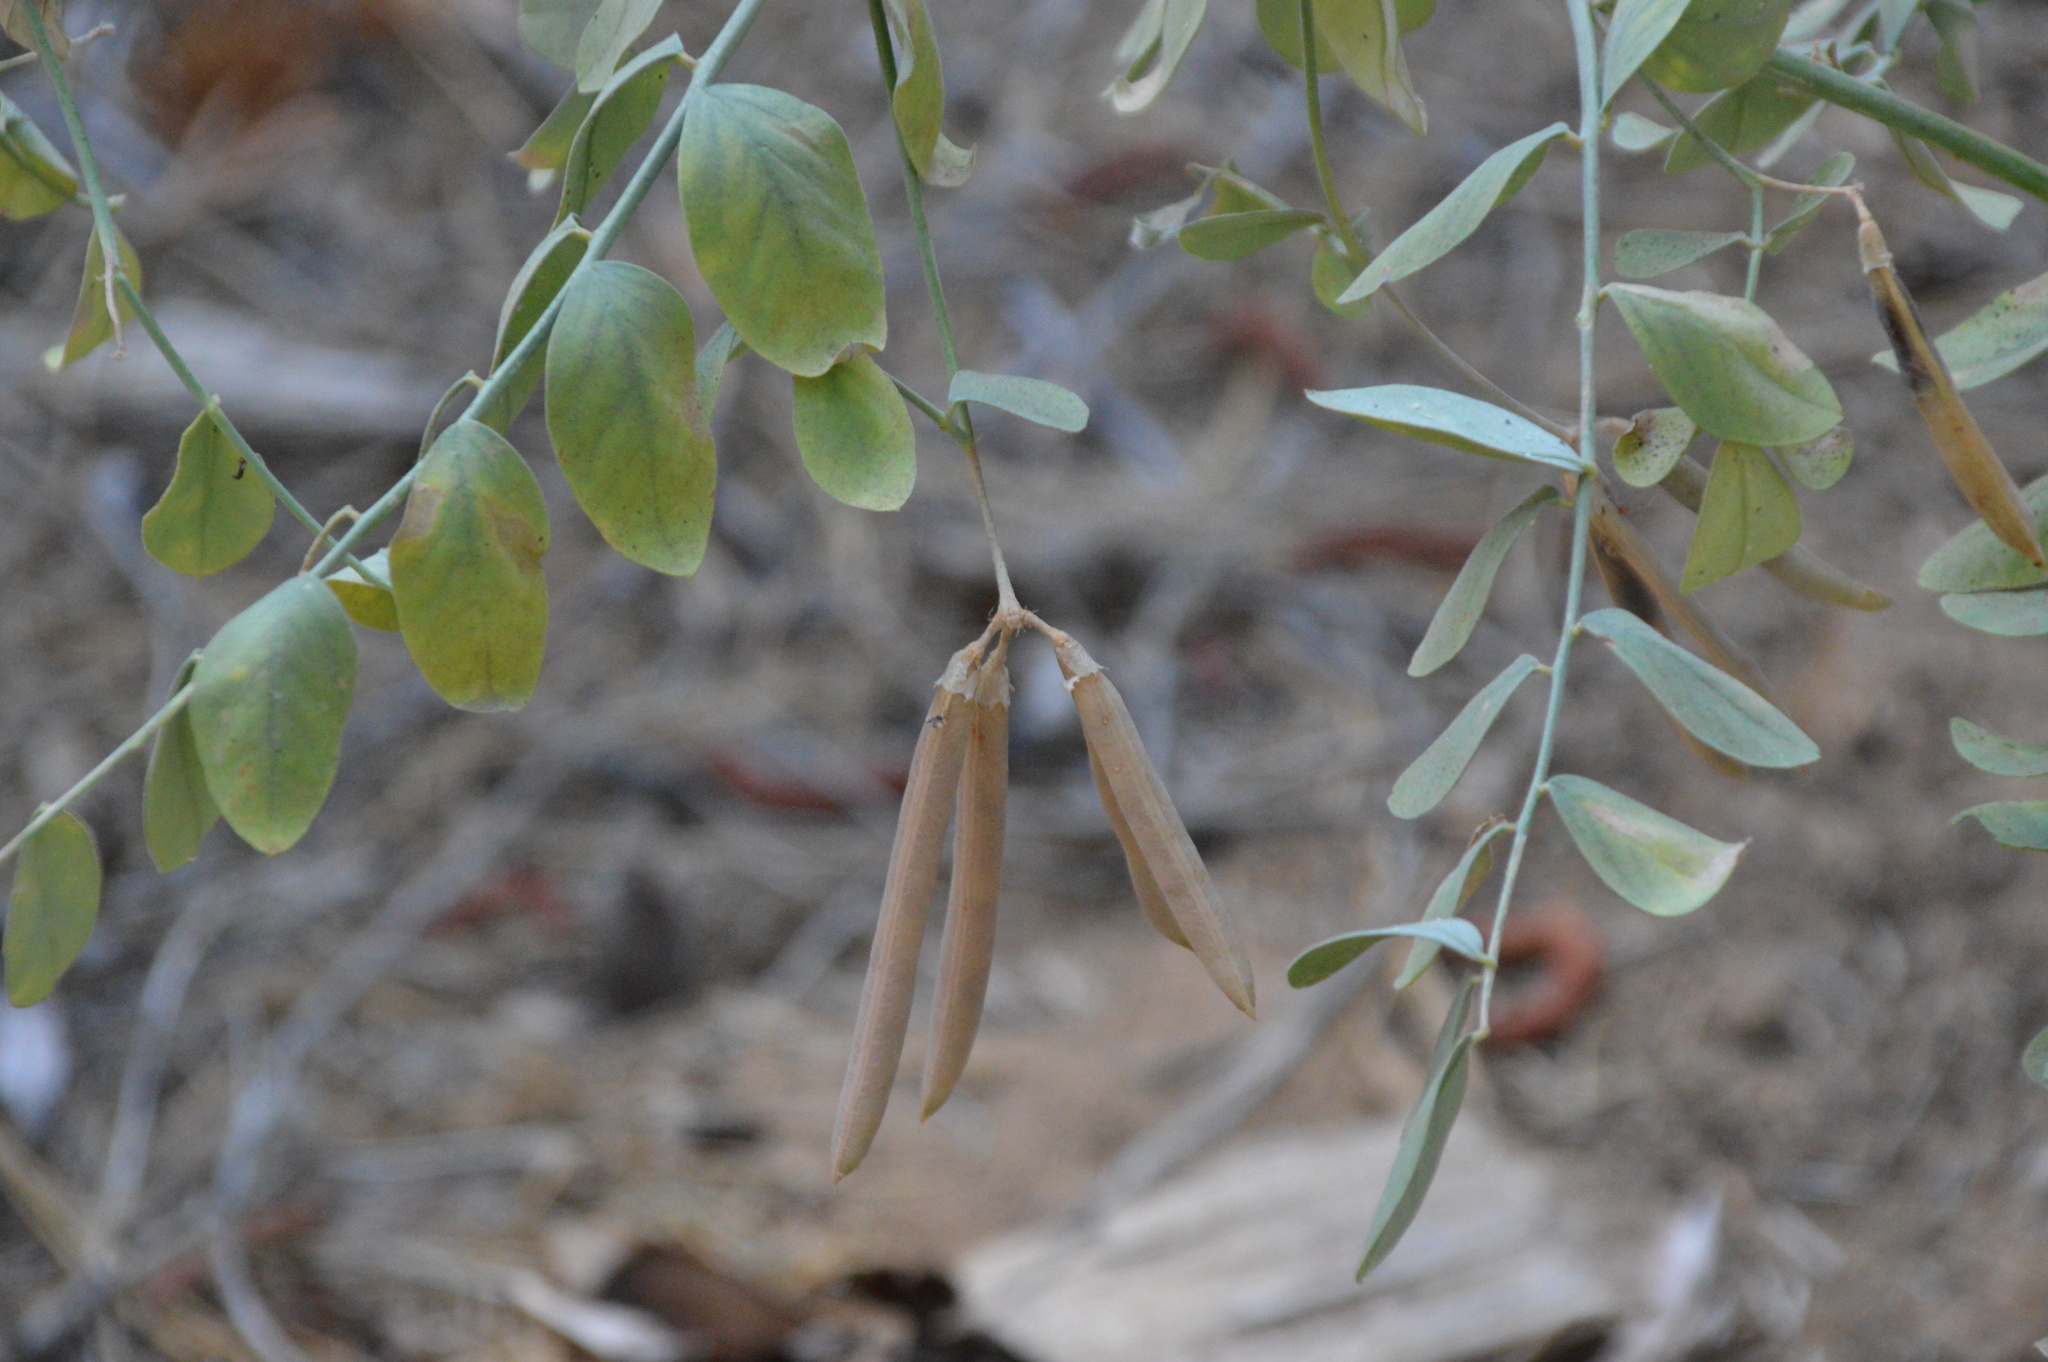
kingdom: Plantae
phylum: Tracheophyta
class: Magnoliopsida
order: Fabales
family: Fabaceae
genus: Hosackia
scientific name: Hosackia crassifolia
